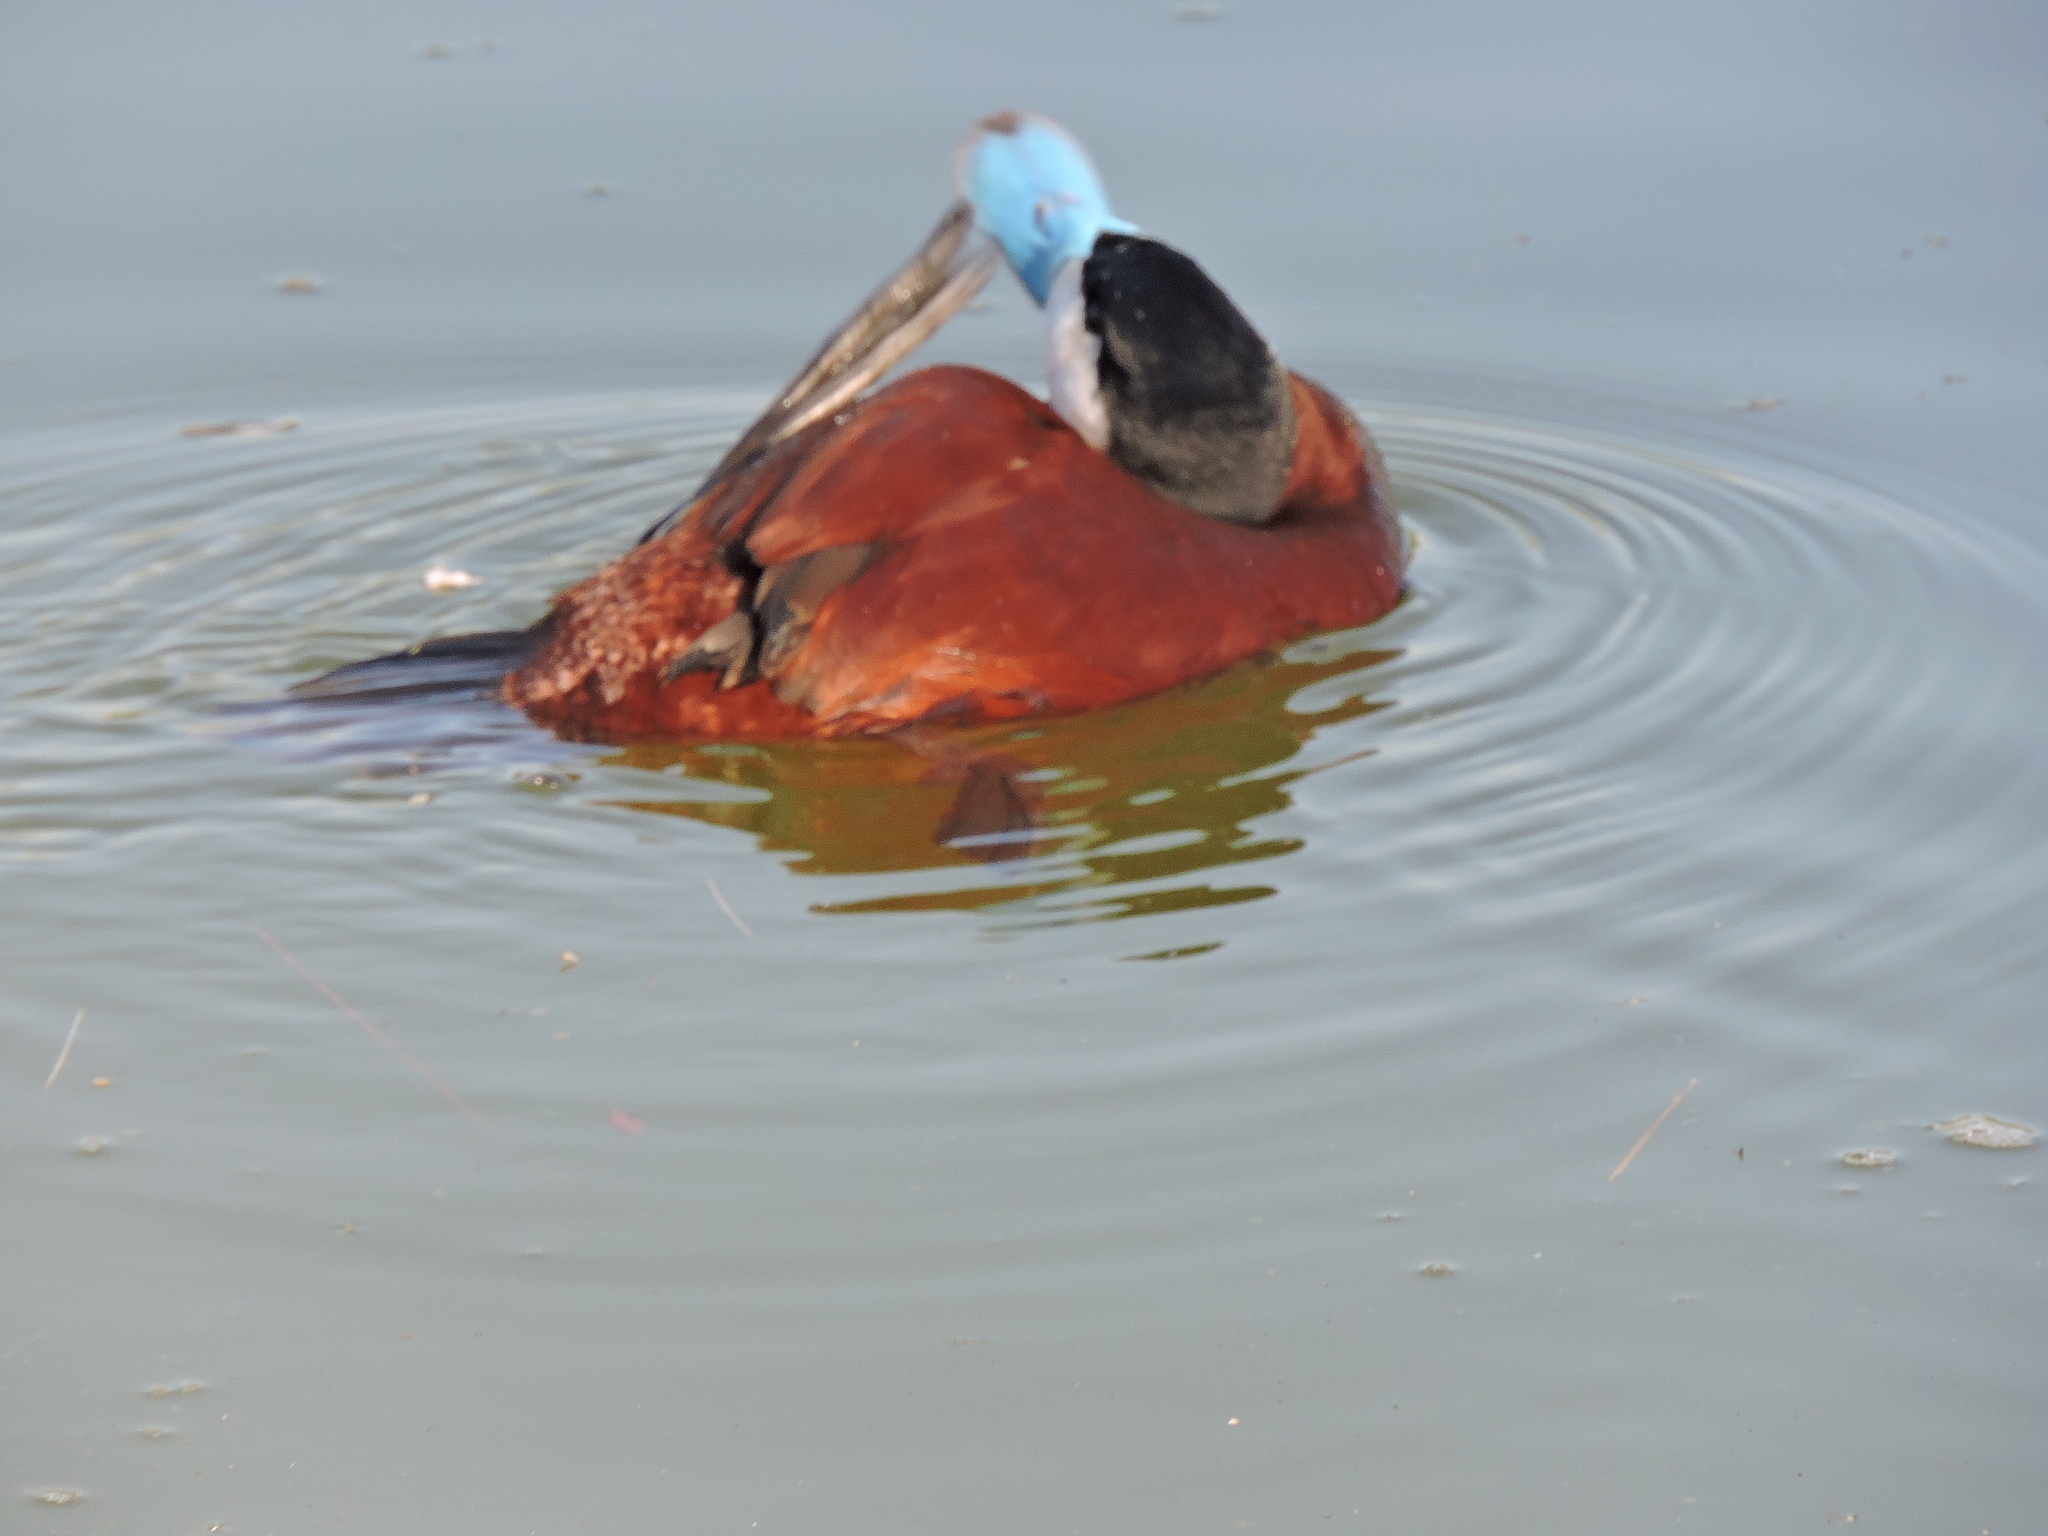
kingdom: Animalia
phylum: Chordata
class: Aves
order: Anseriformes
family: Anatidae
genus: Oxyura
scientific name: Oxyura jamaicensis
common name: Ruddy duck
